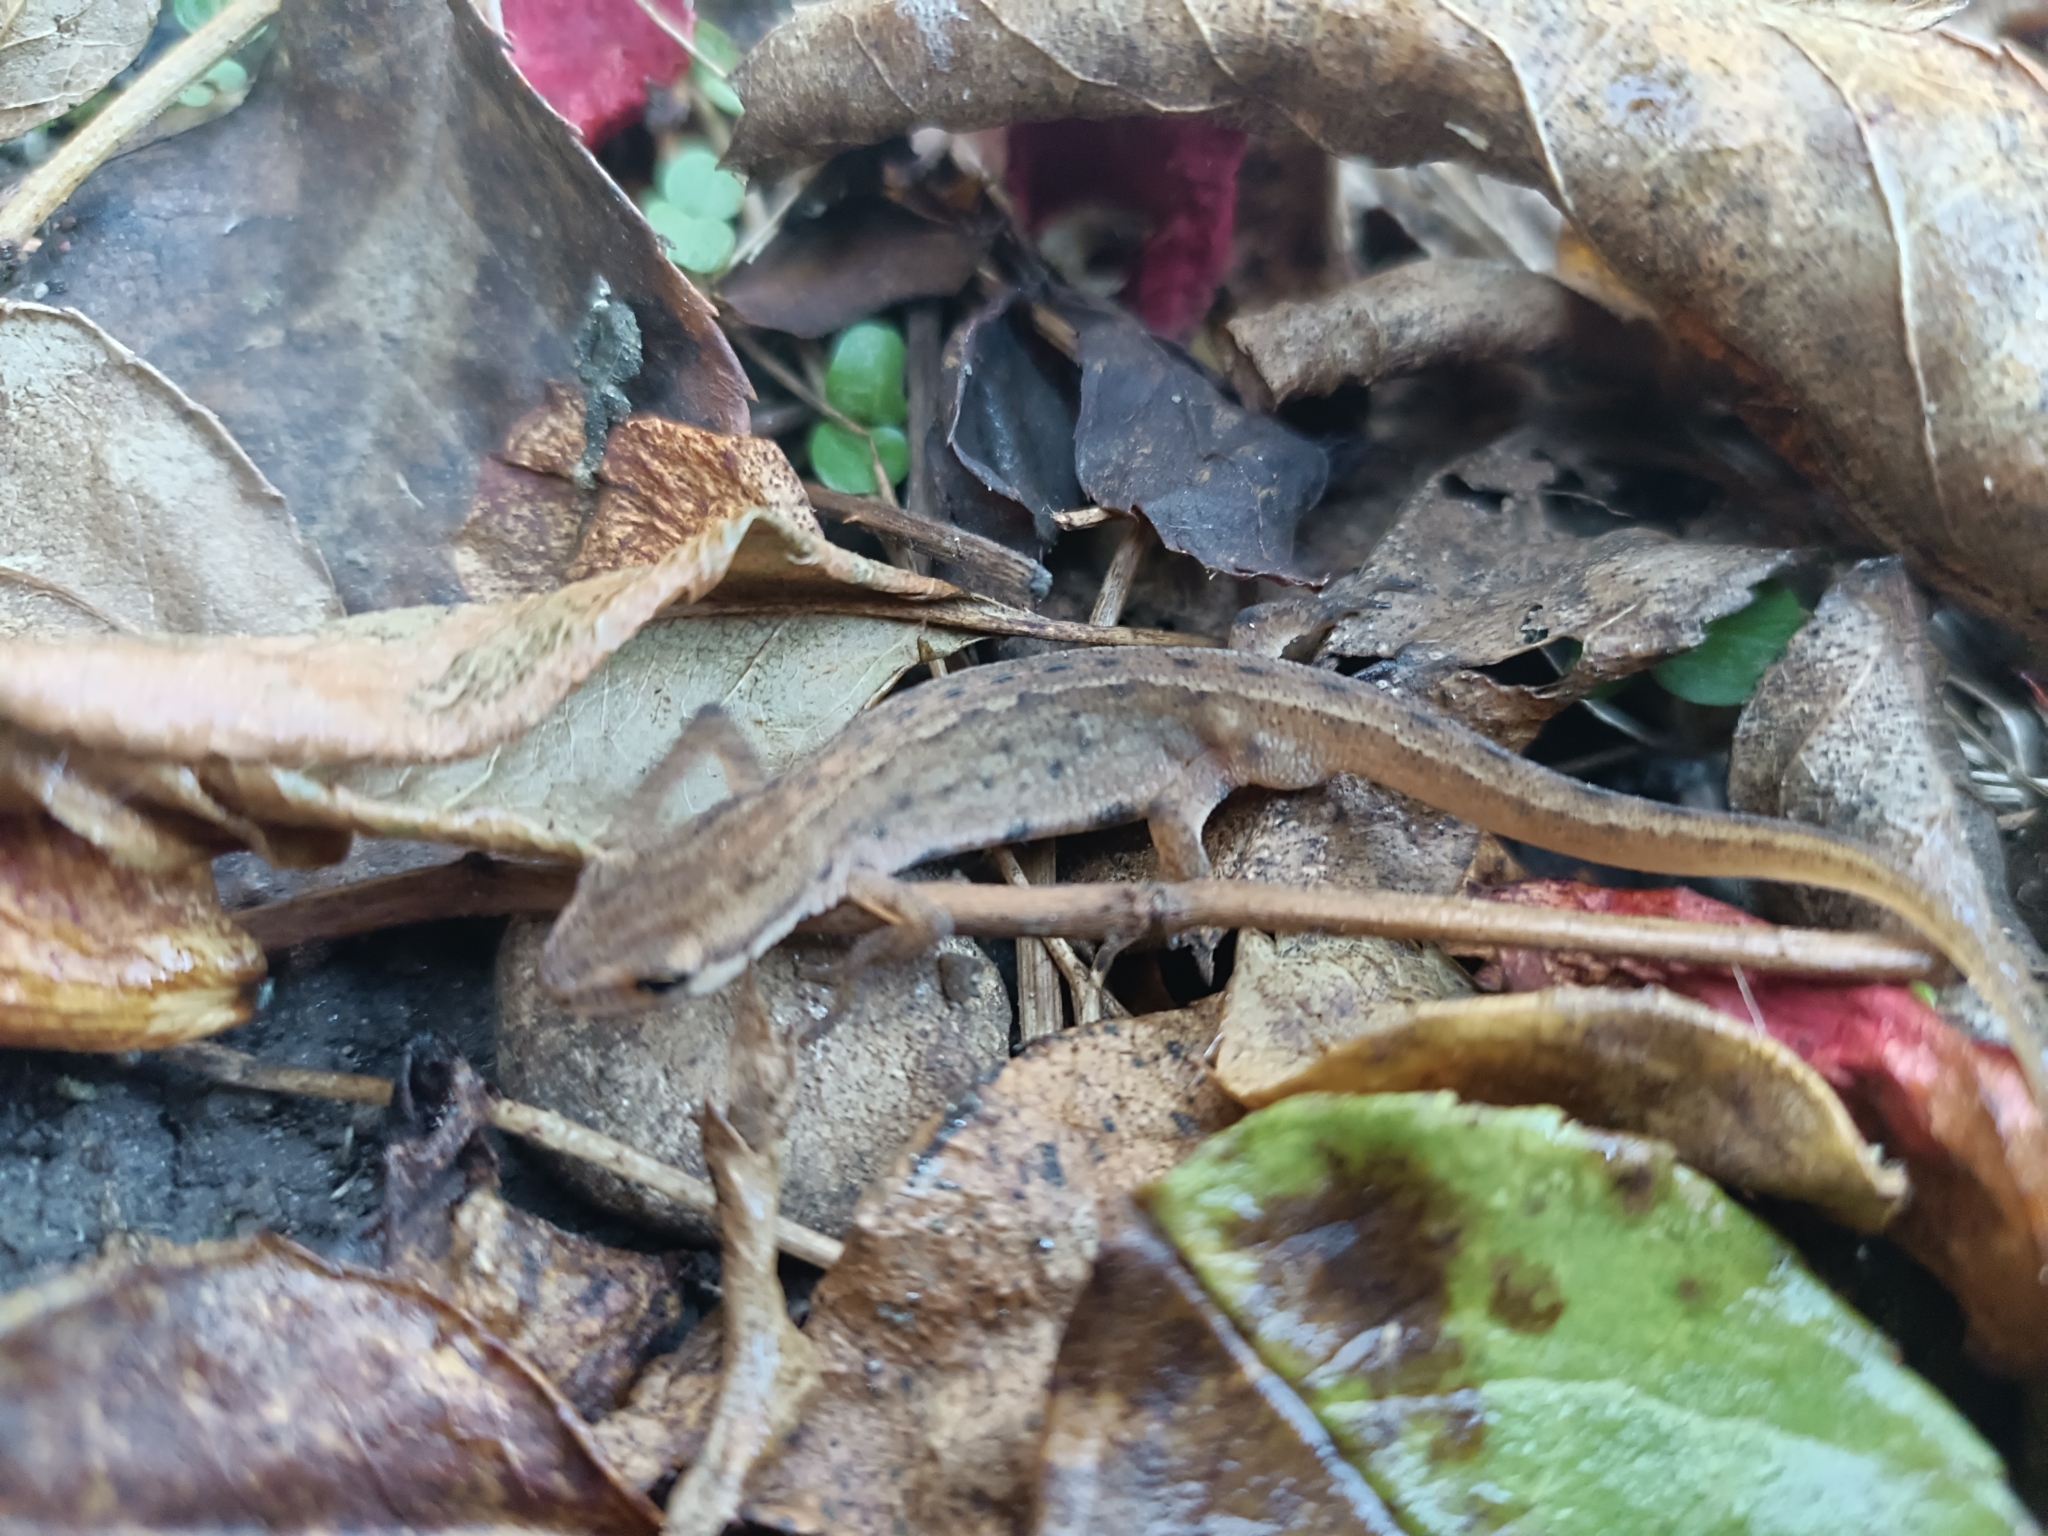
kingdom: Animalia
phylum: Chordata
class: Amphibia
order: Caudata
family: Salamandridae
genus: Lissotriton
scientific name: Lissotriton vulgaris
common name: Smooth newt
